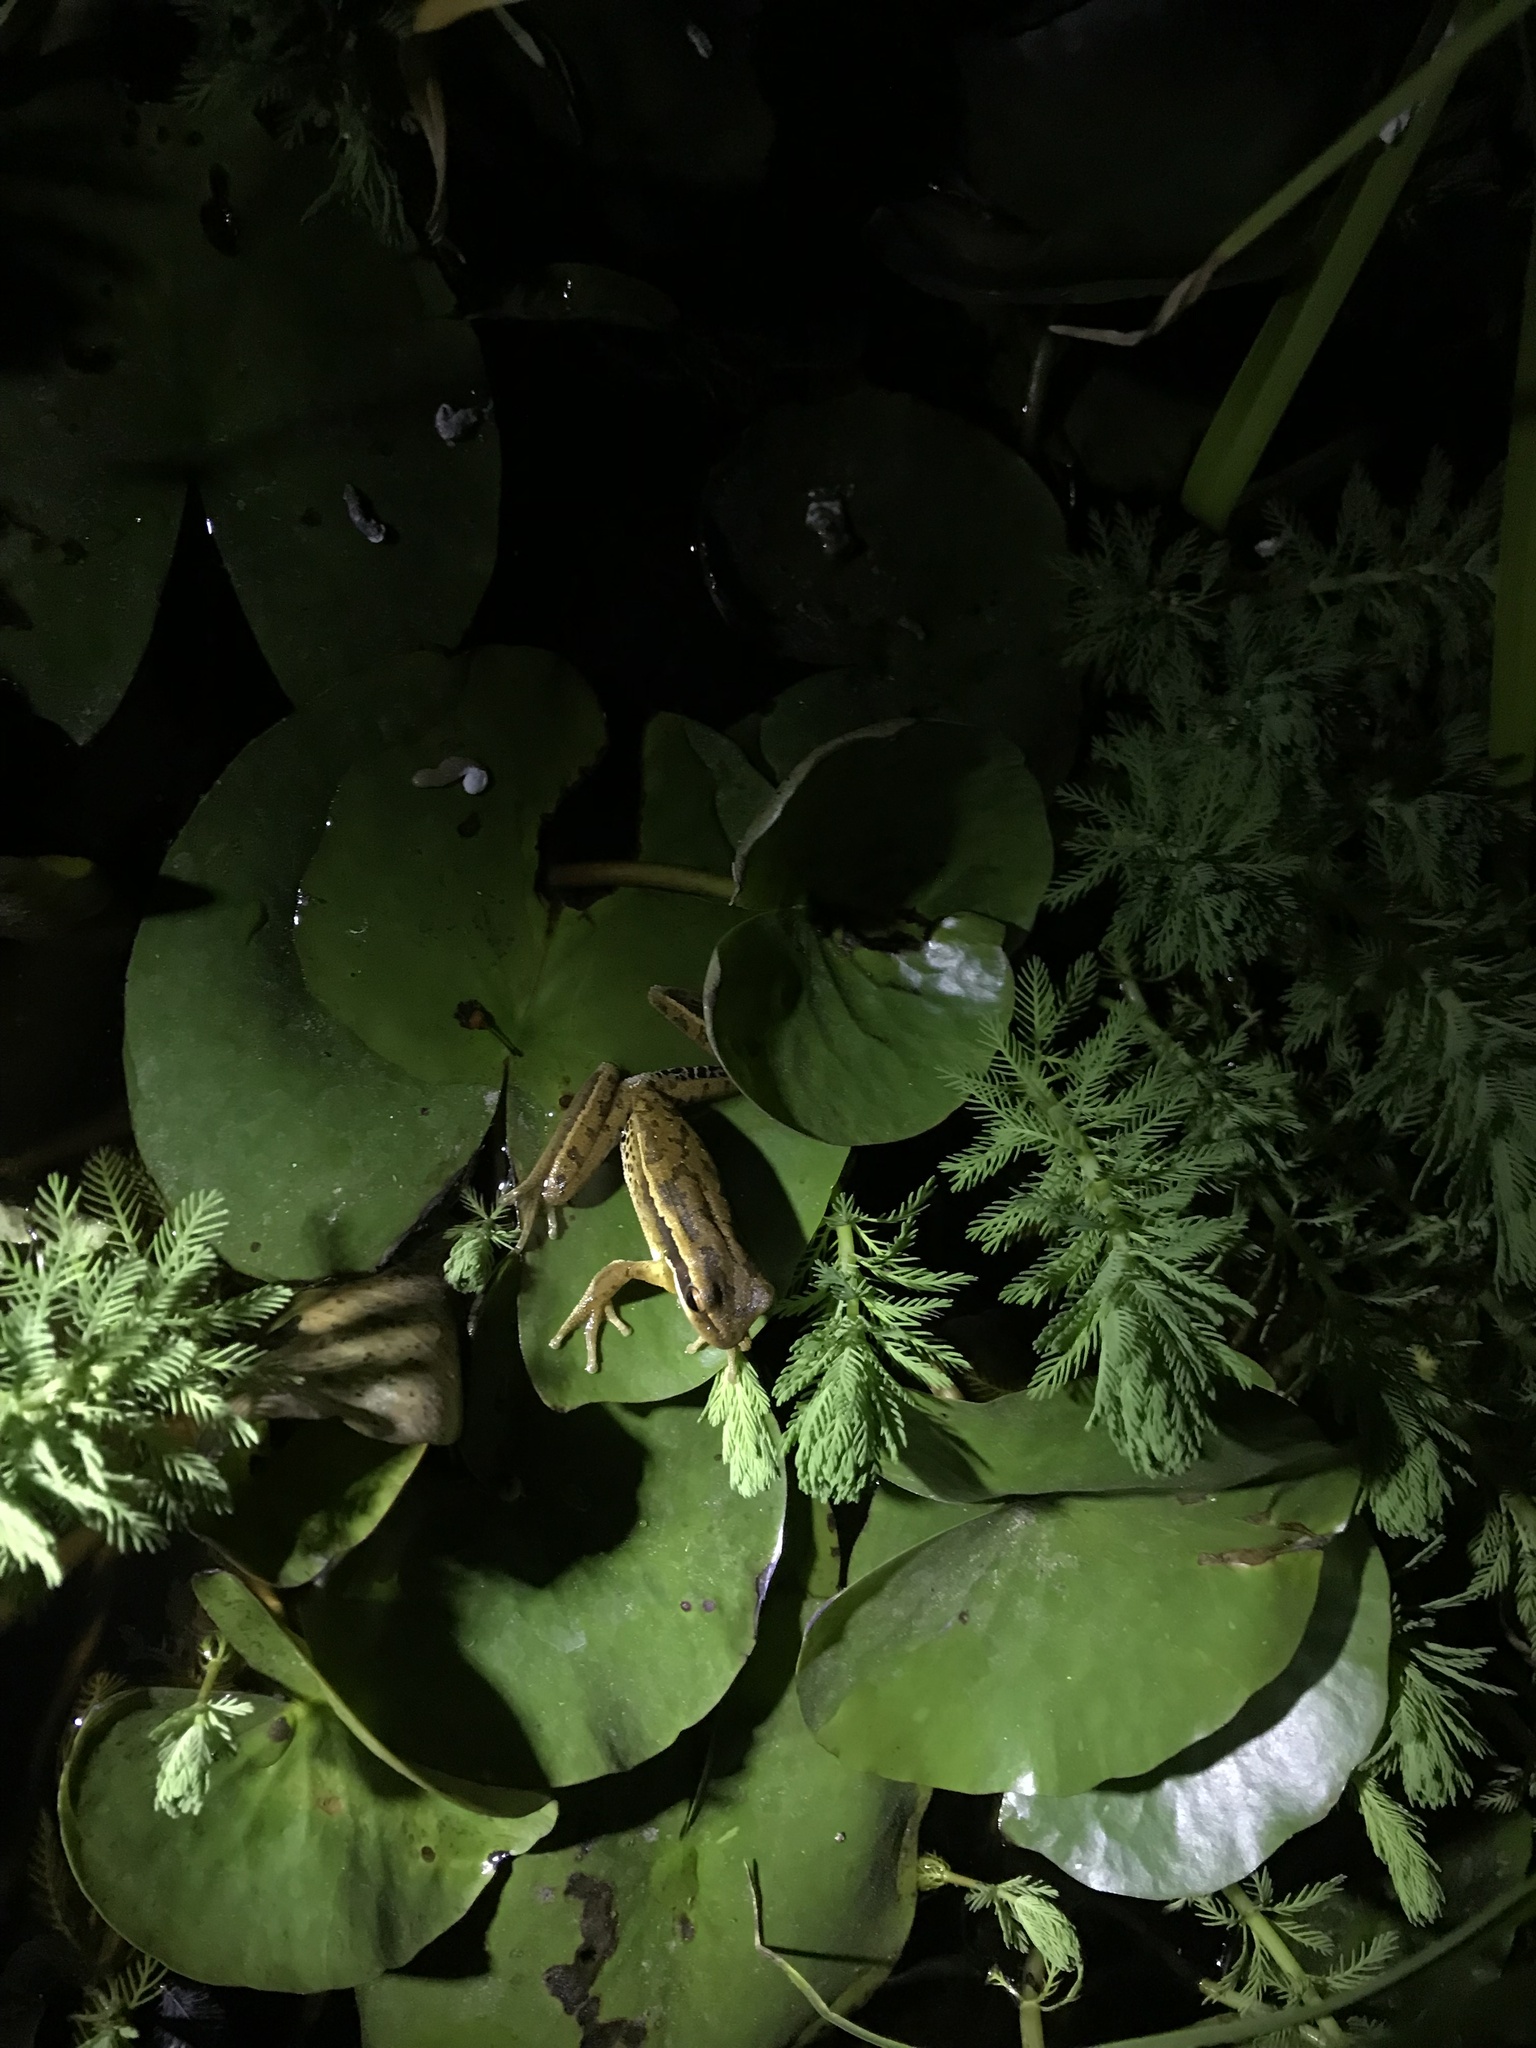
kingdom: Animalia
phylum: Chordata
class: Amphibia
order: Anura
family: Hylidae
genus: Boana
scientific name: Boana pulchella
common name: Montevideo treefrog
